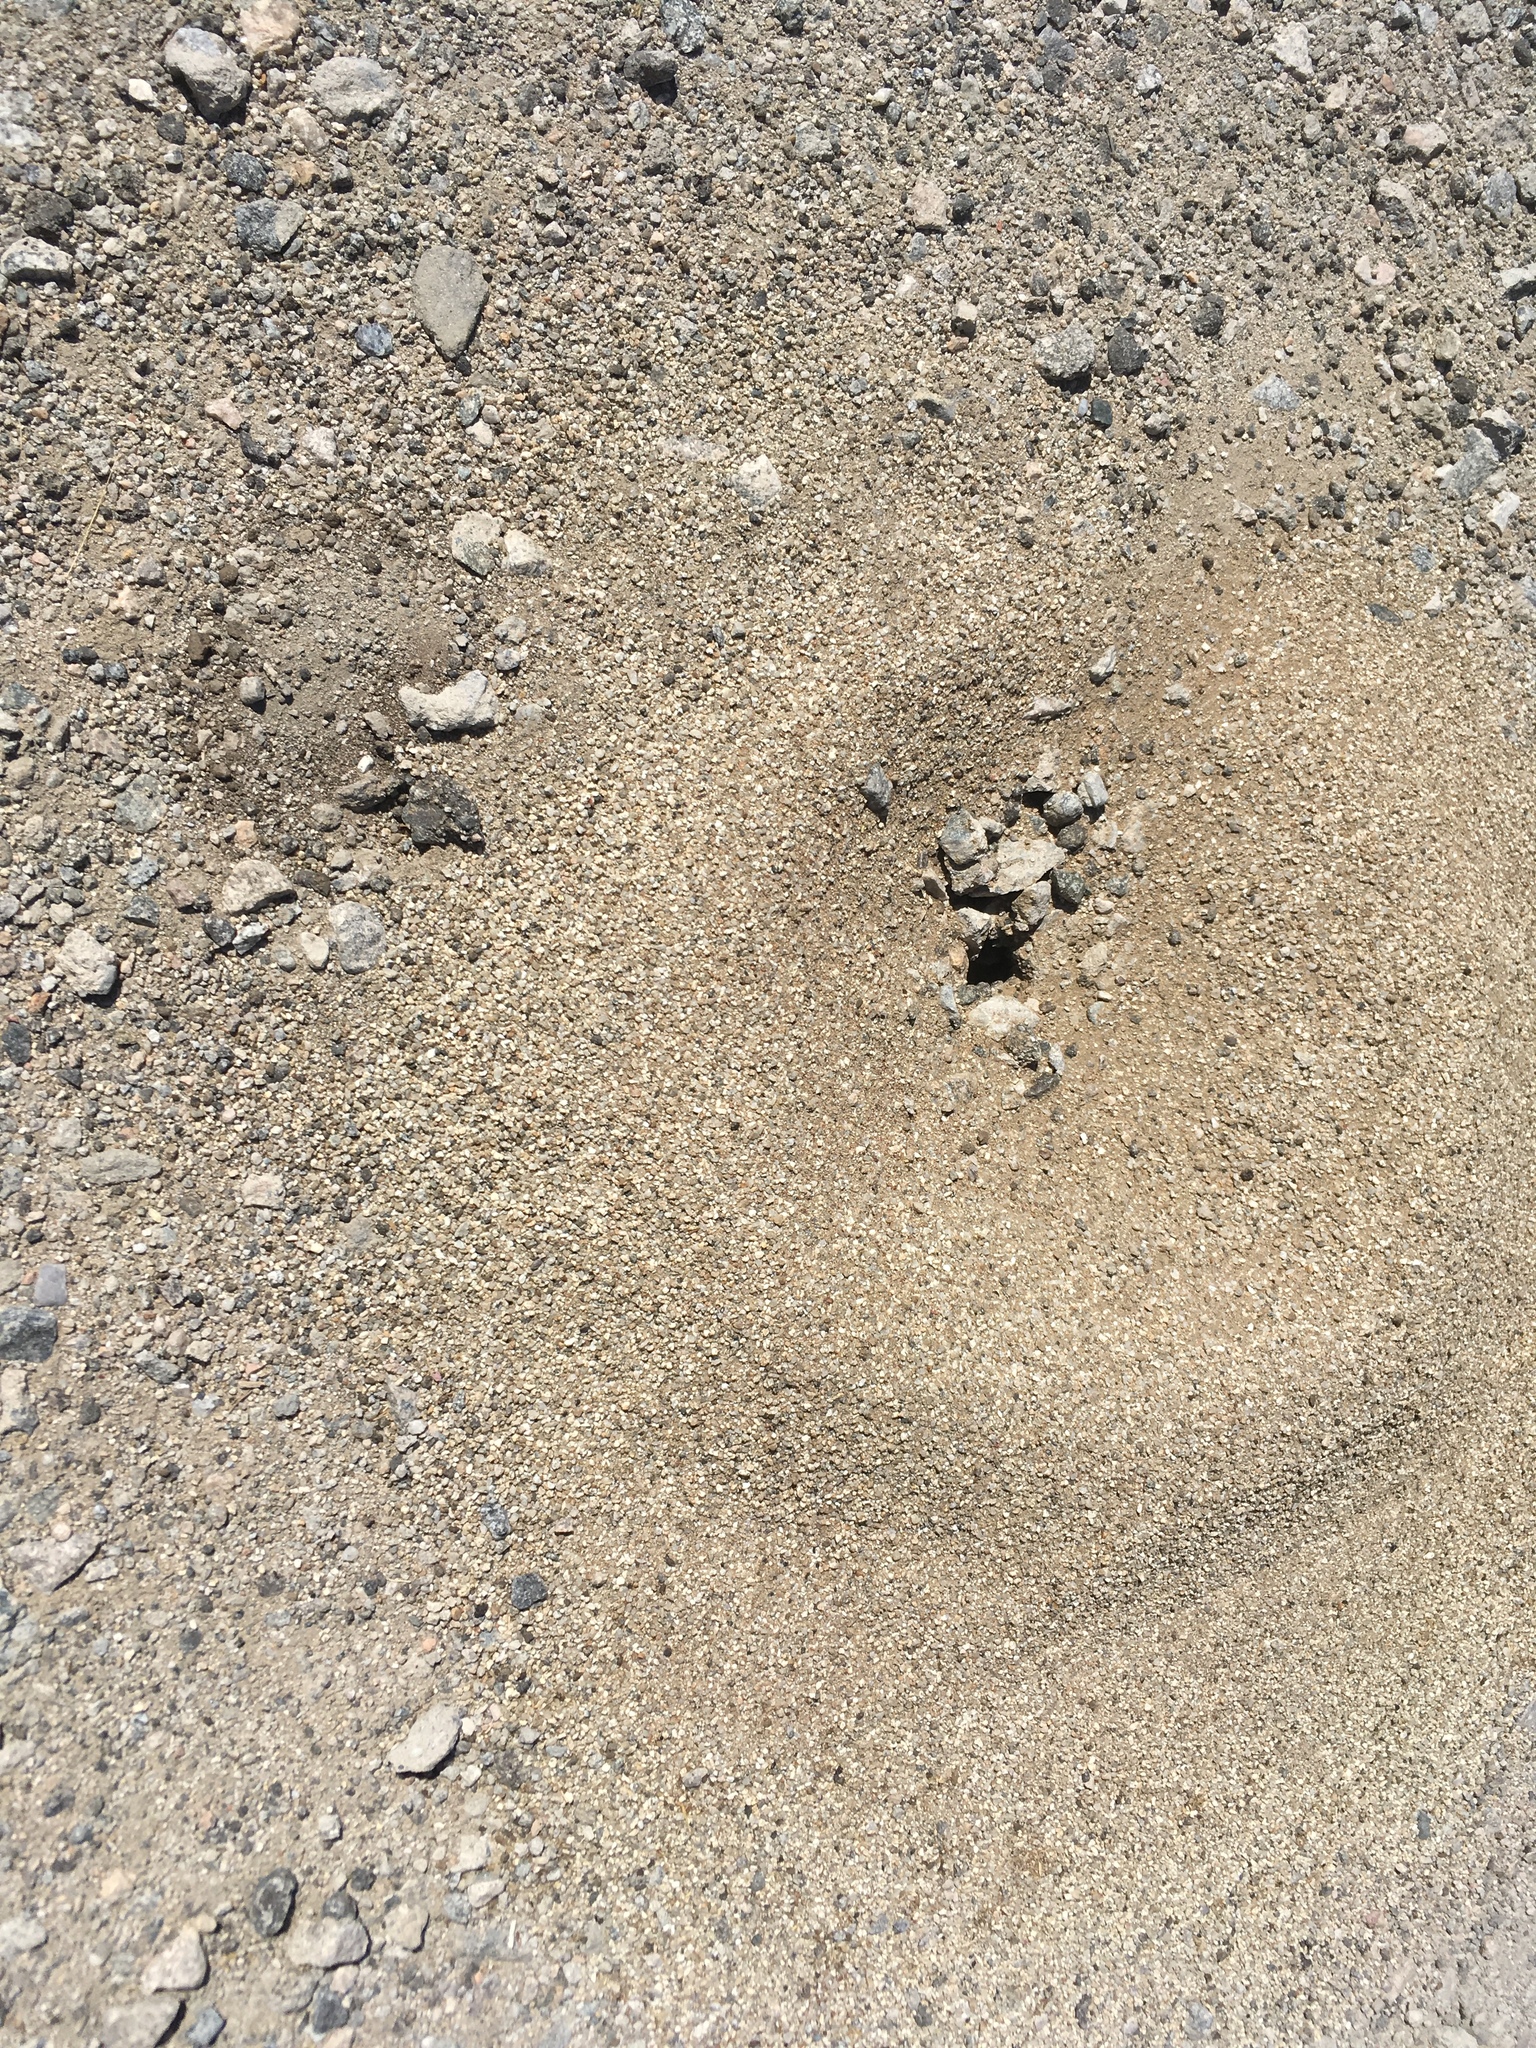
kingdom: Animalia
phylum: Arthropoda
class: Insecta
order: Hymenoptera
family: Formicidae
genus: Messor
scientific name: Messor pergandei
